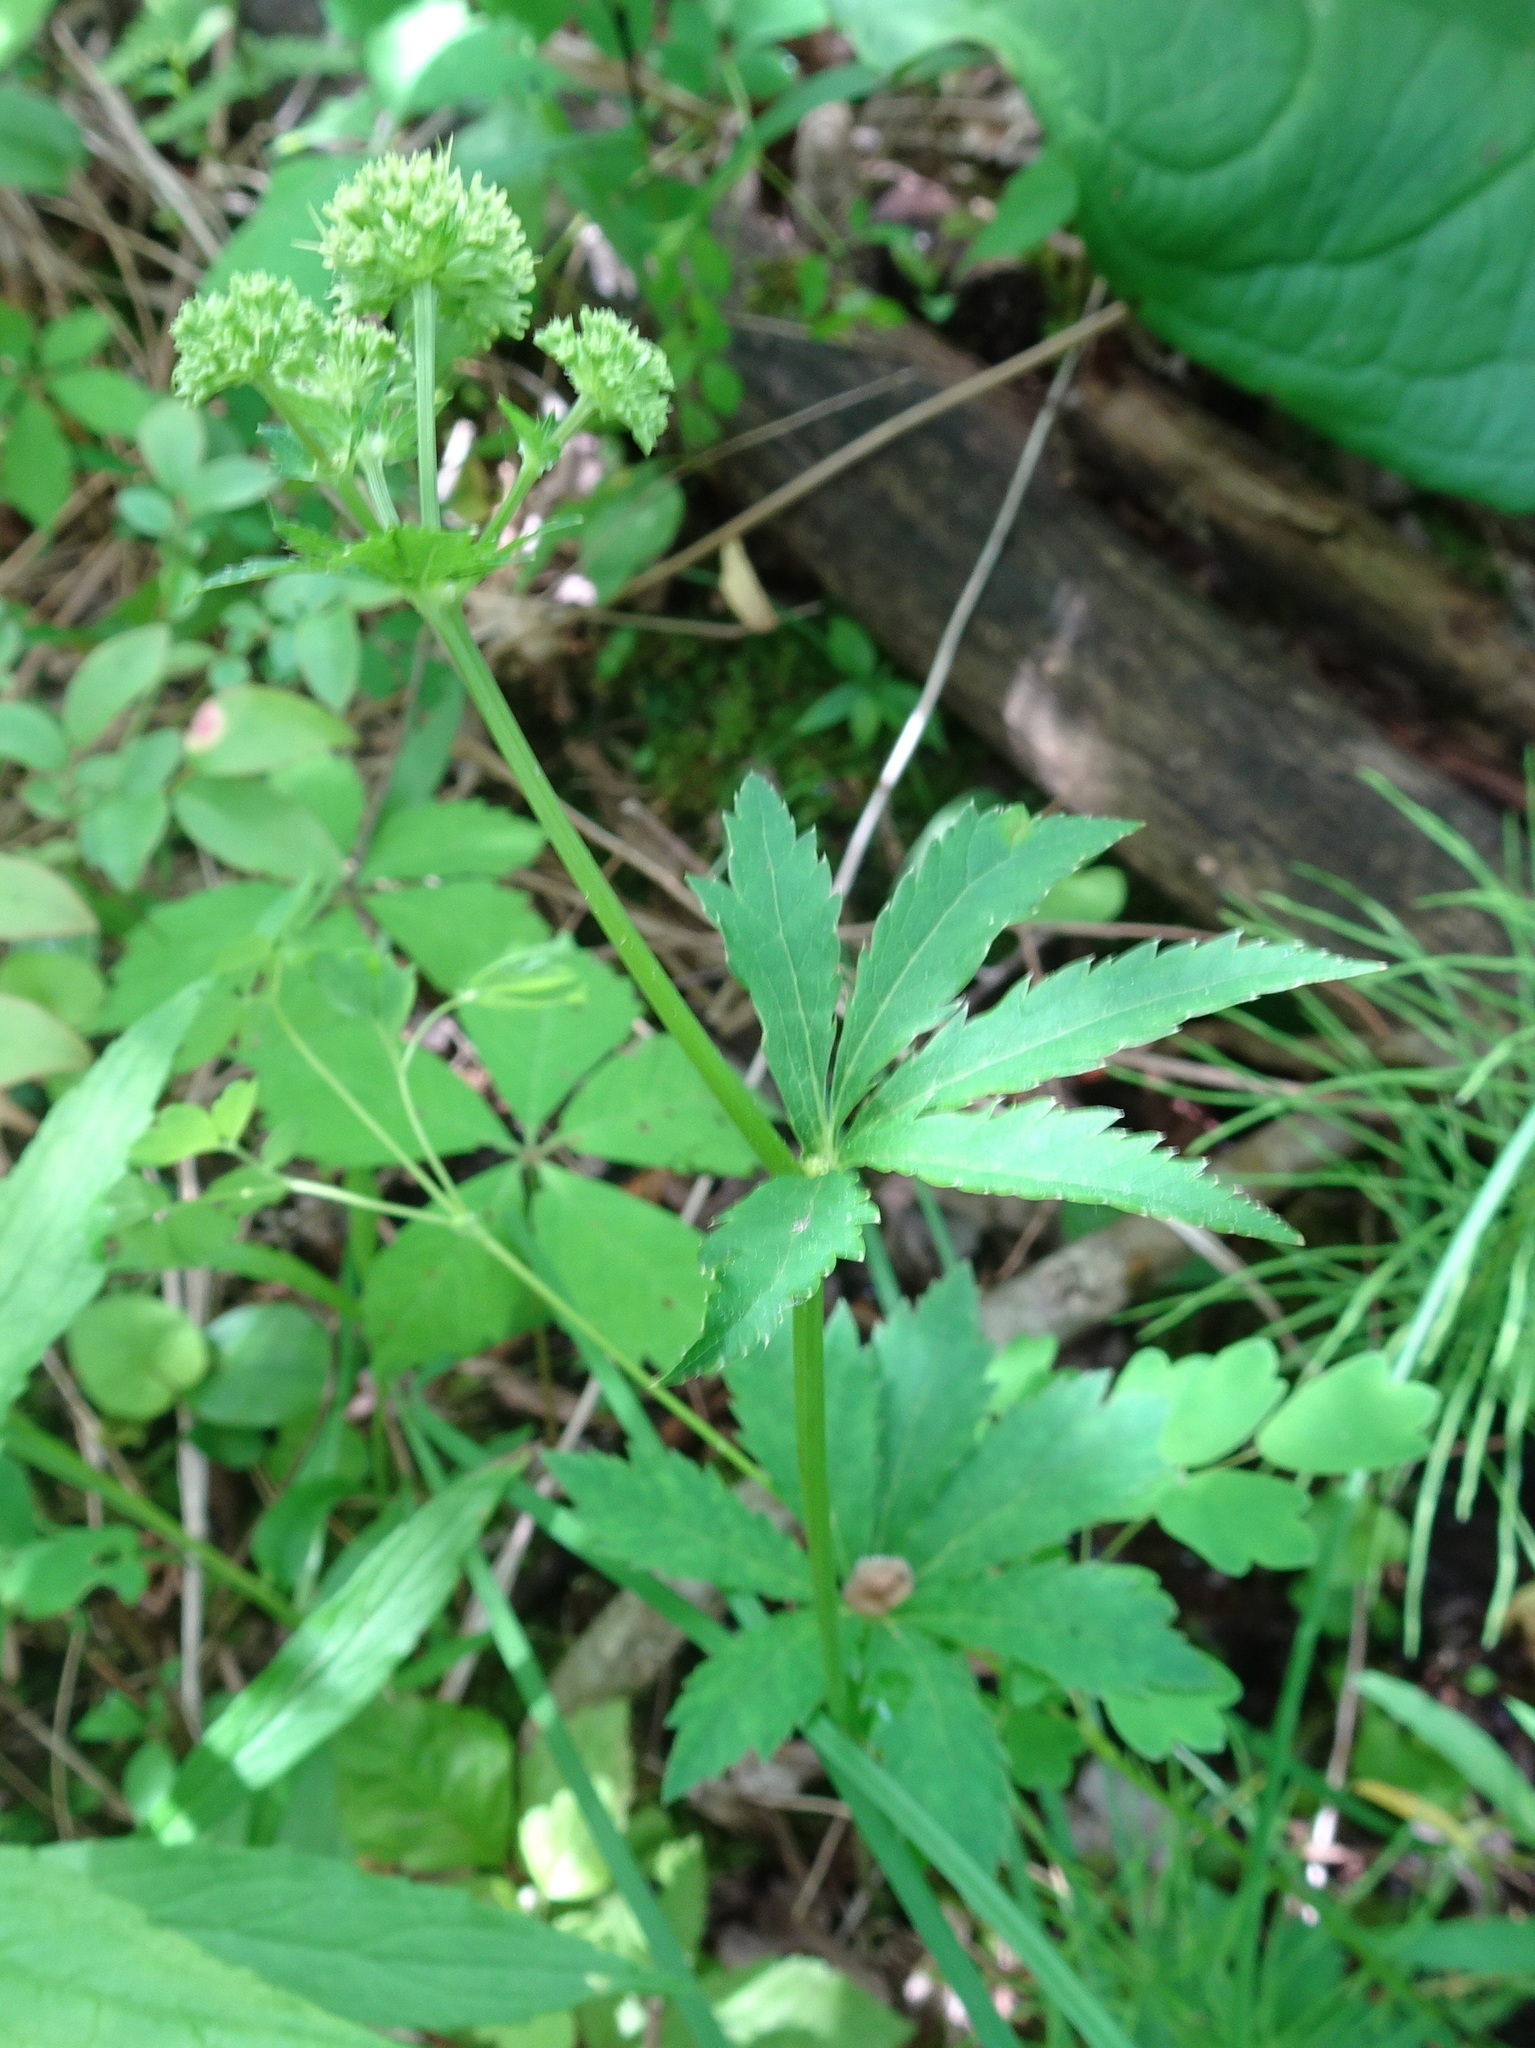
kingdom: Plantae
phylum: Tracheophyta
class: Magnoliopsida
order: Apiales
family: Apiaceae
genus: Sanicula
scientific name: Sanicula marilandica
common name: Black snakeroot
